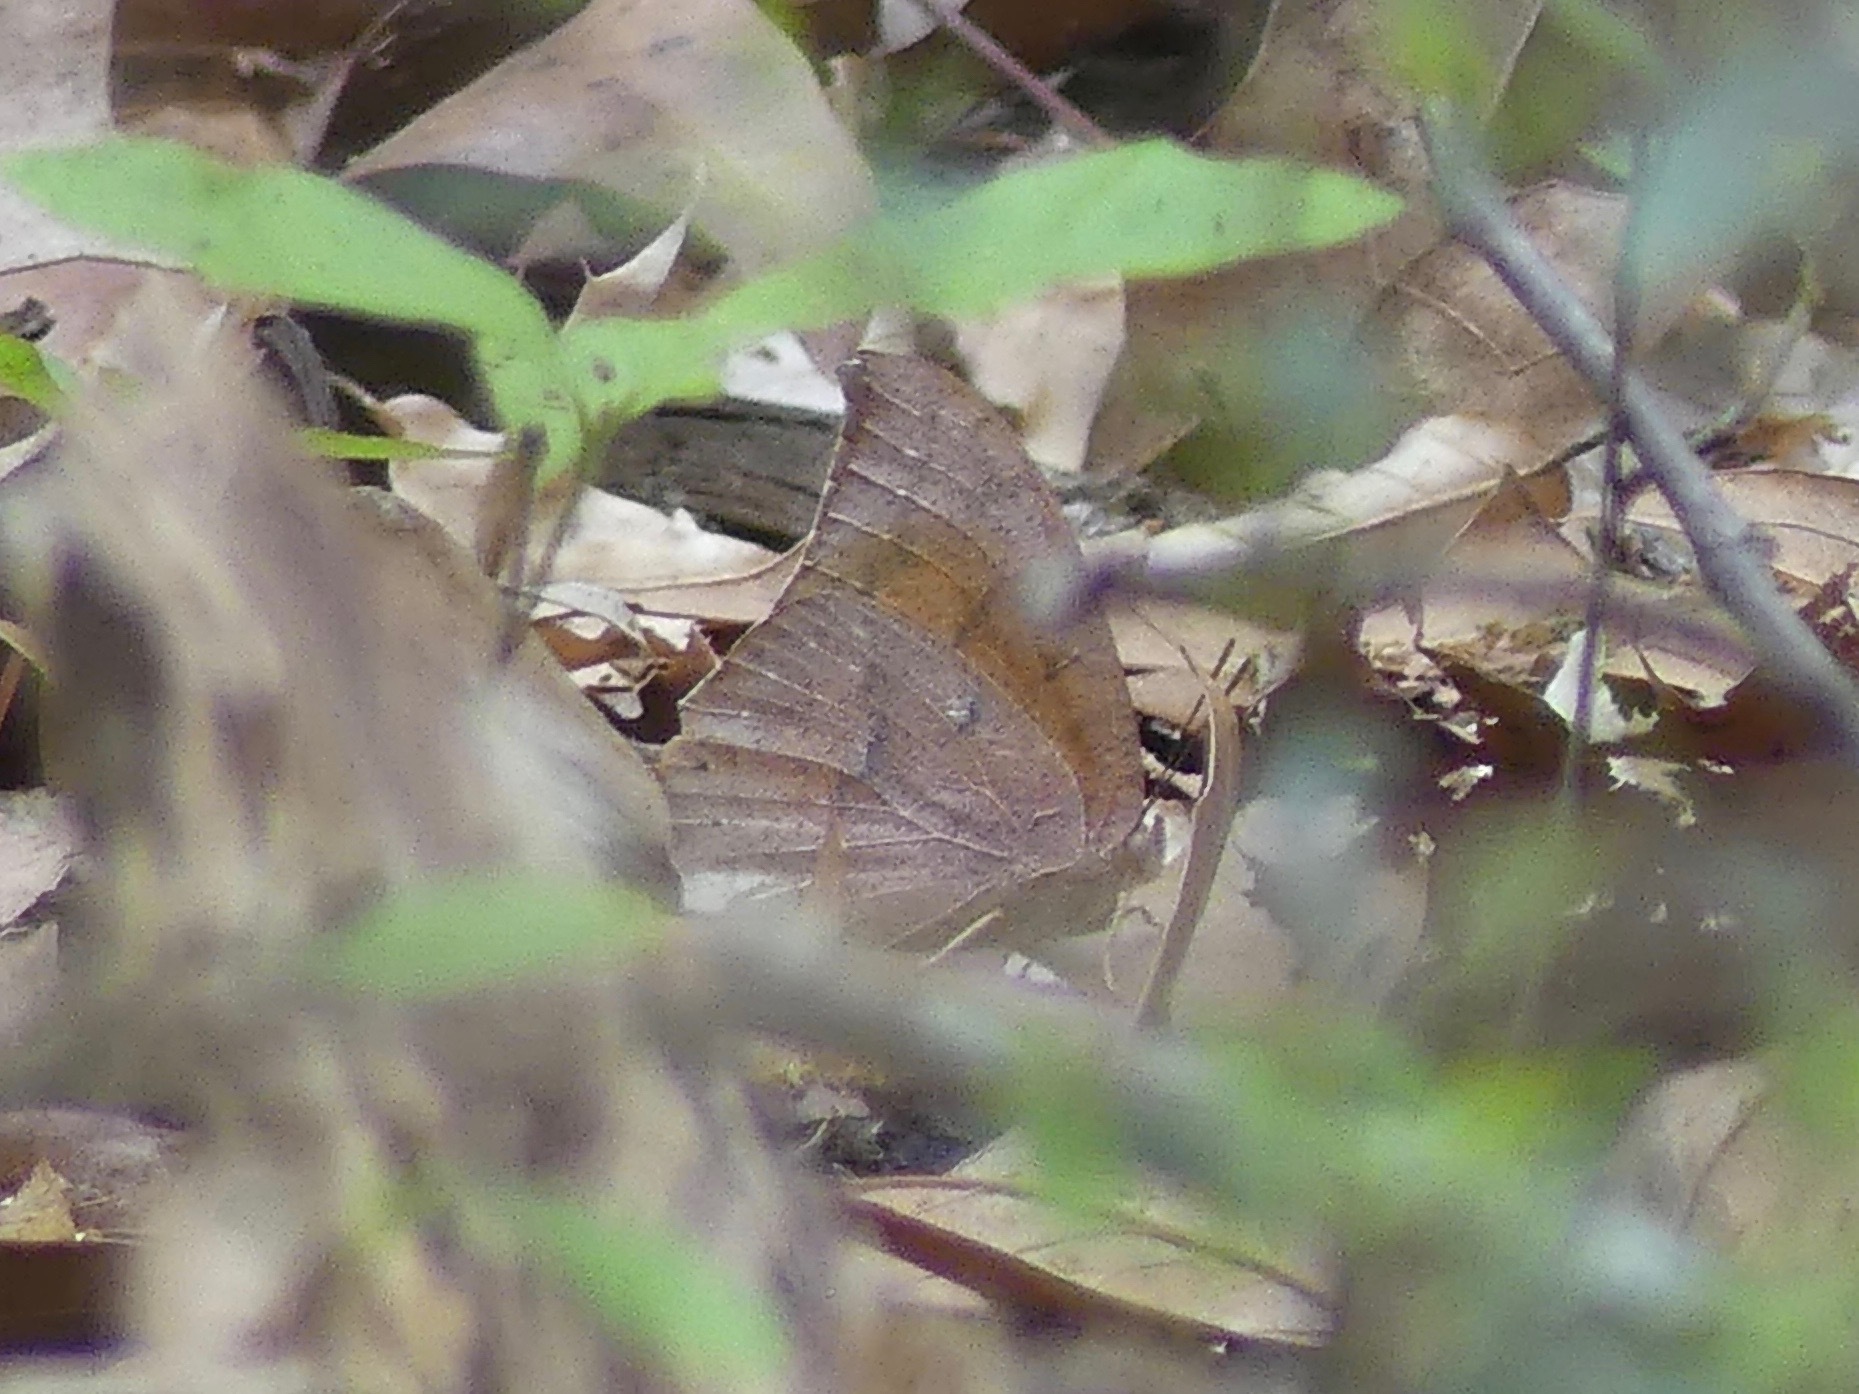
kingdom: Animalia
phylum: Arthropoda
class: Insecta
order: Lepidoptera
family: Nymphalidae
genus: Anaea
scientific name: Anaea andria
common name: Goatweed leafwing
